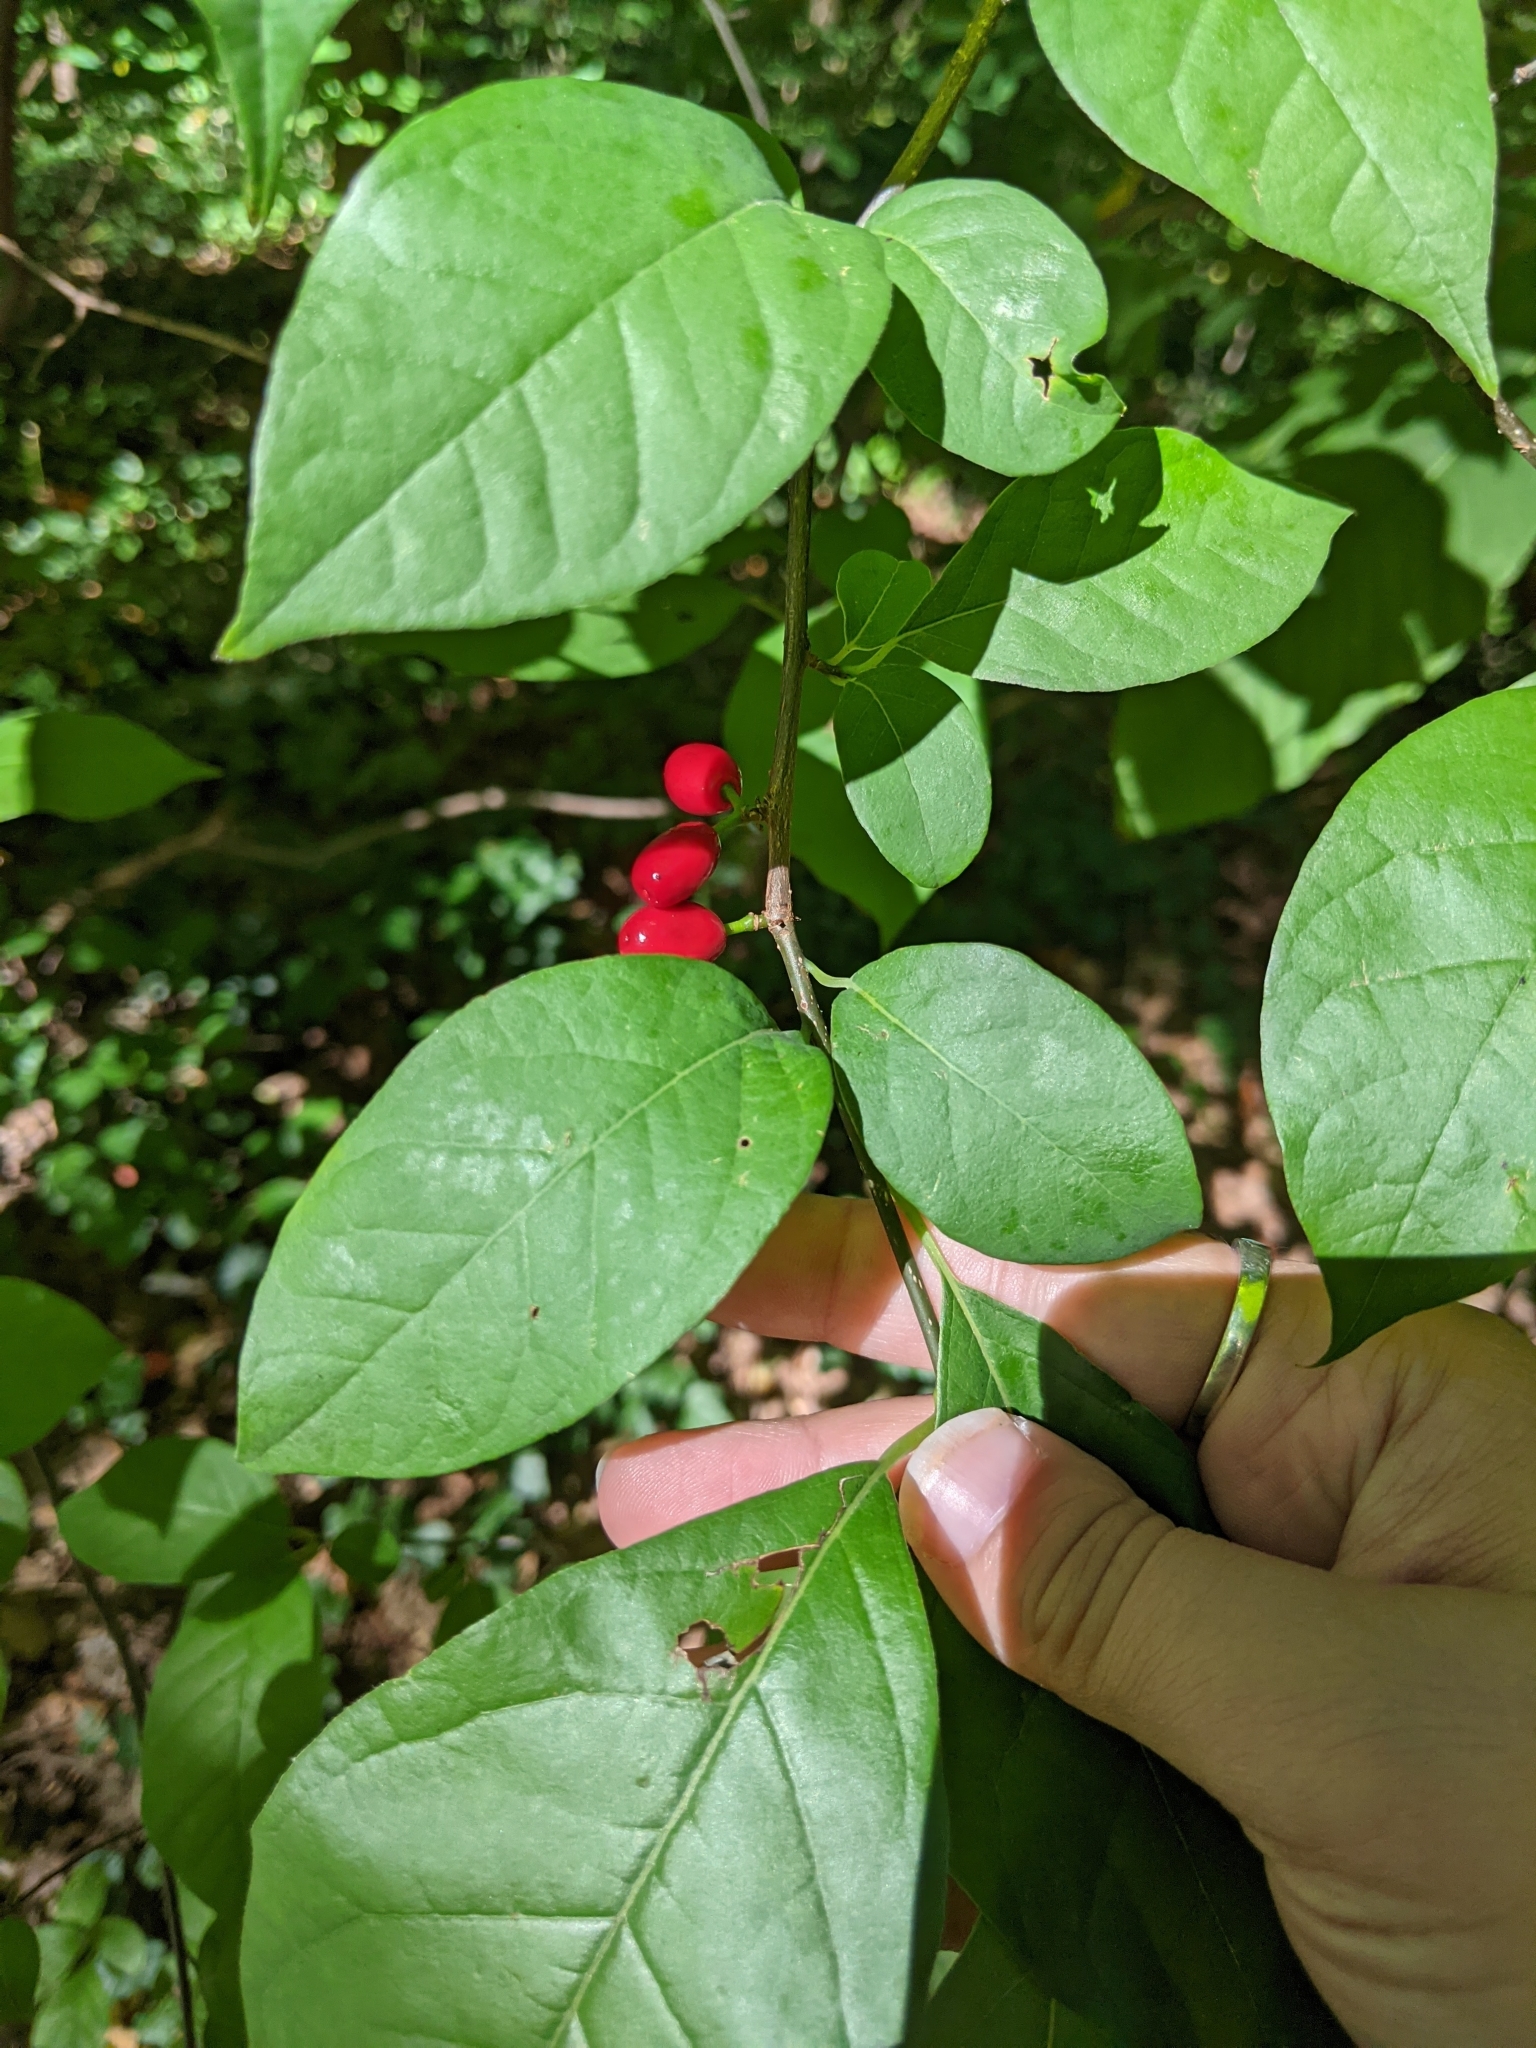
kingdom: Plantae
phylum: Tracheophyta
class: Magnoliopsida
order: Laurales
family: Lauraceae
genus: Lindera
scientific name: Lindera benzoin
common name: Spicebush
